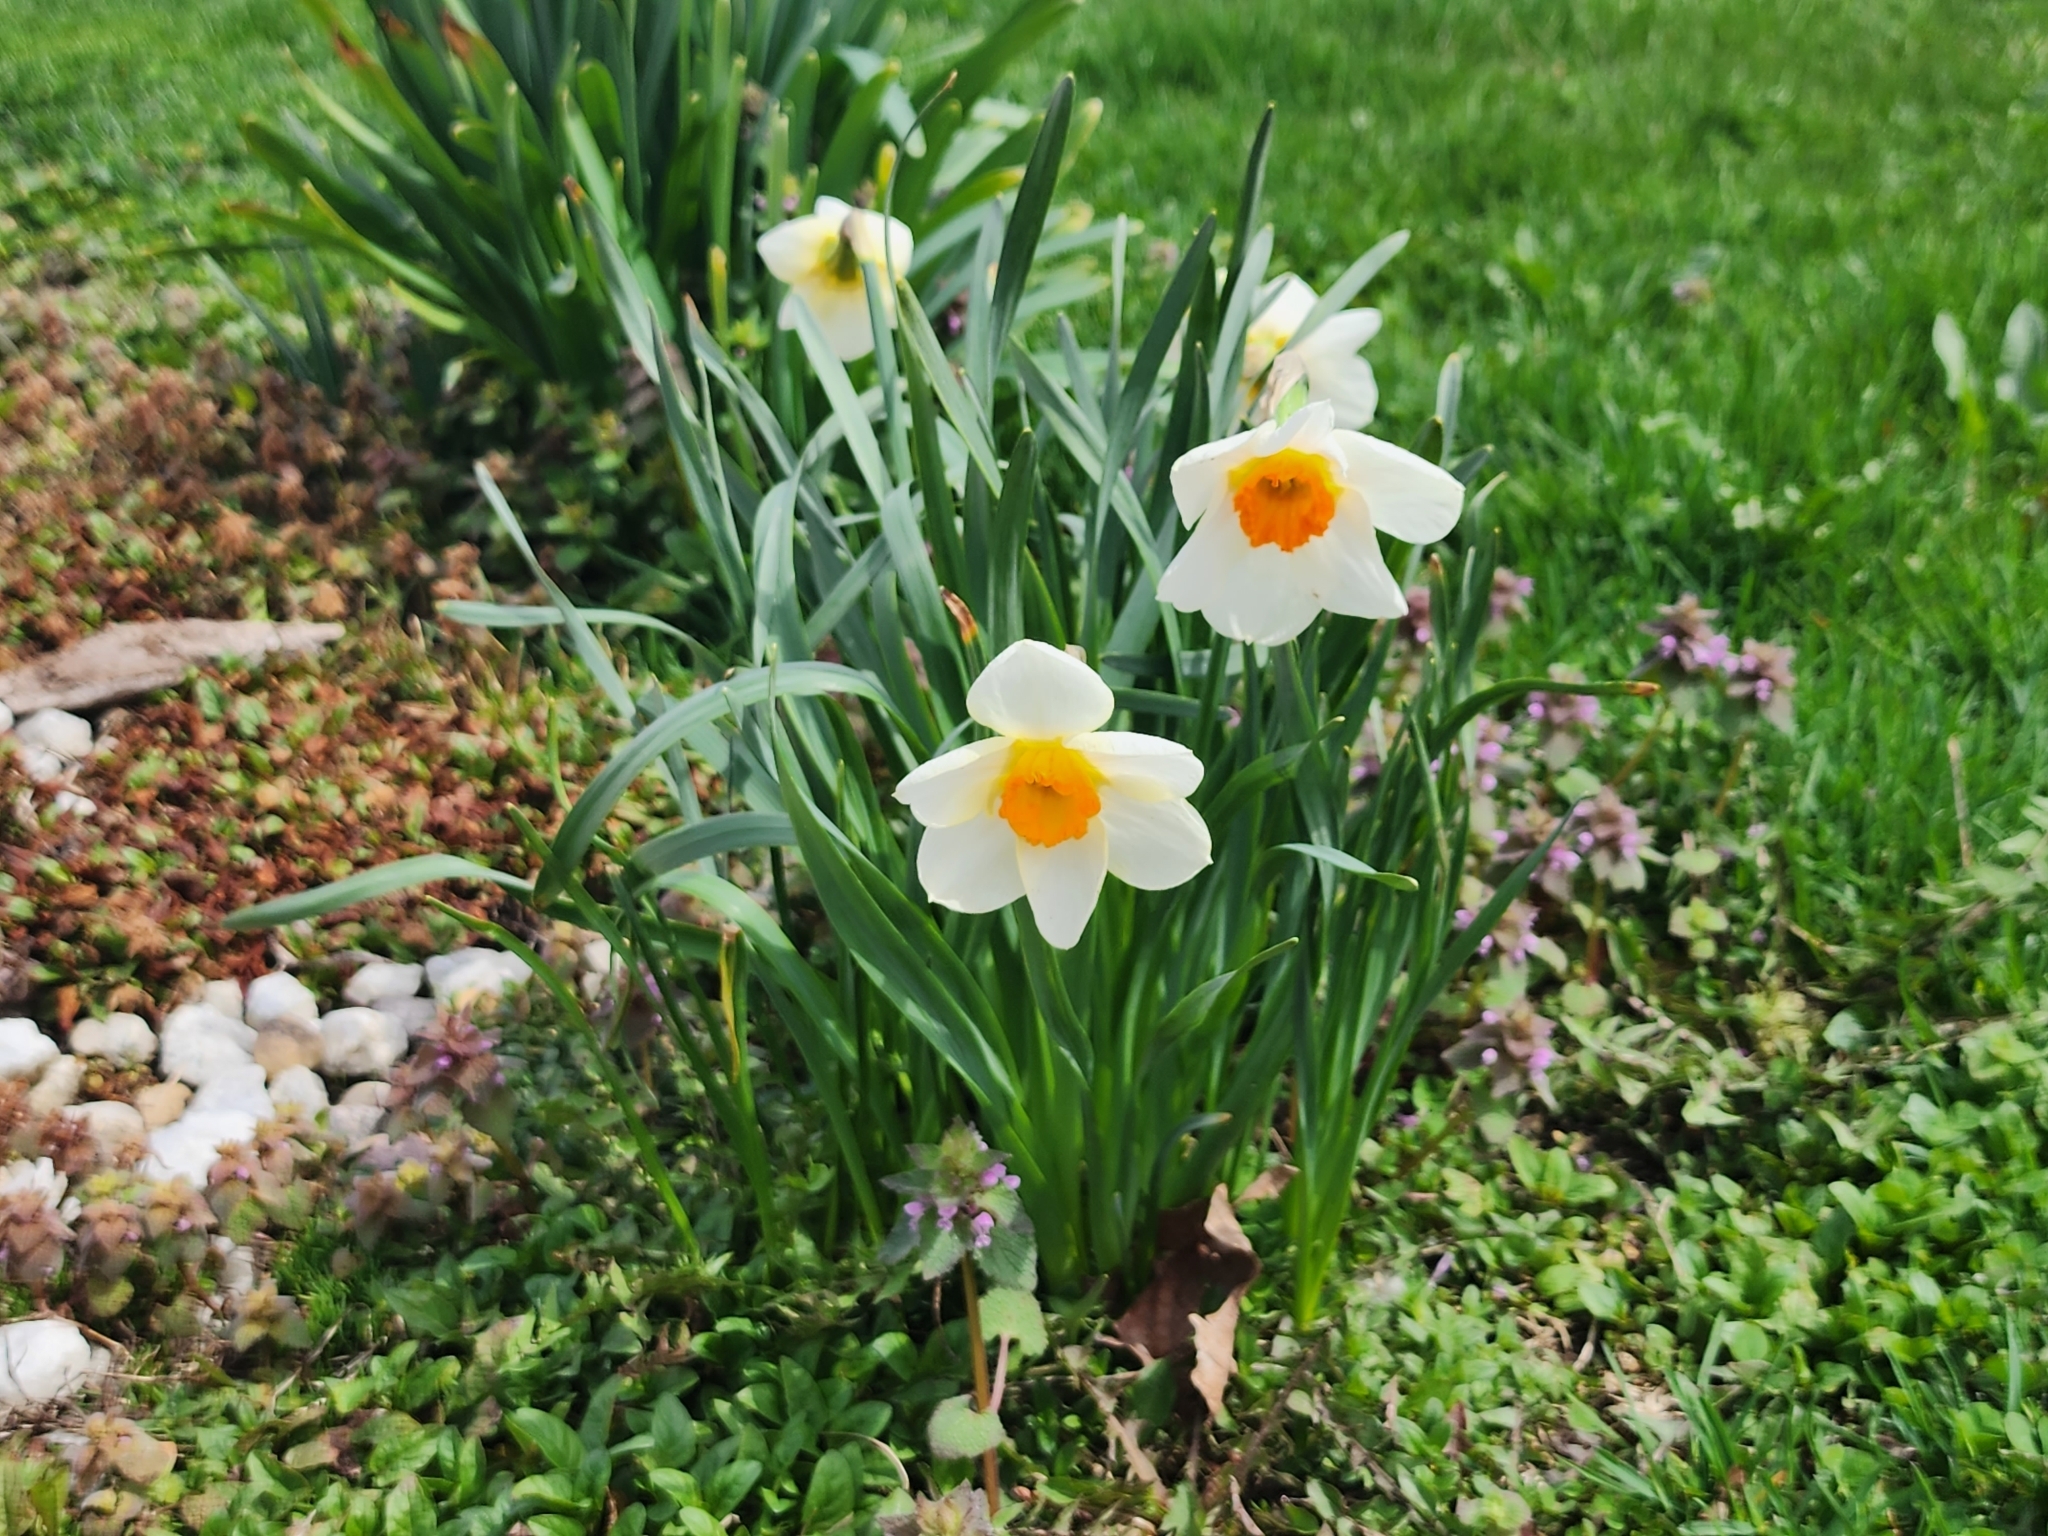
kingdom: Plantae
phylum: Tracheophyta
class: Liliopsida
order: Asparagales
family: Amaryllidaceae
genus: Narcissus
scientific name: Narcissus poeticus
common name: Pheasant's-eye daffodil
